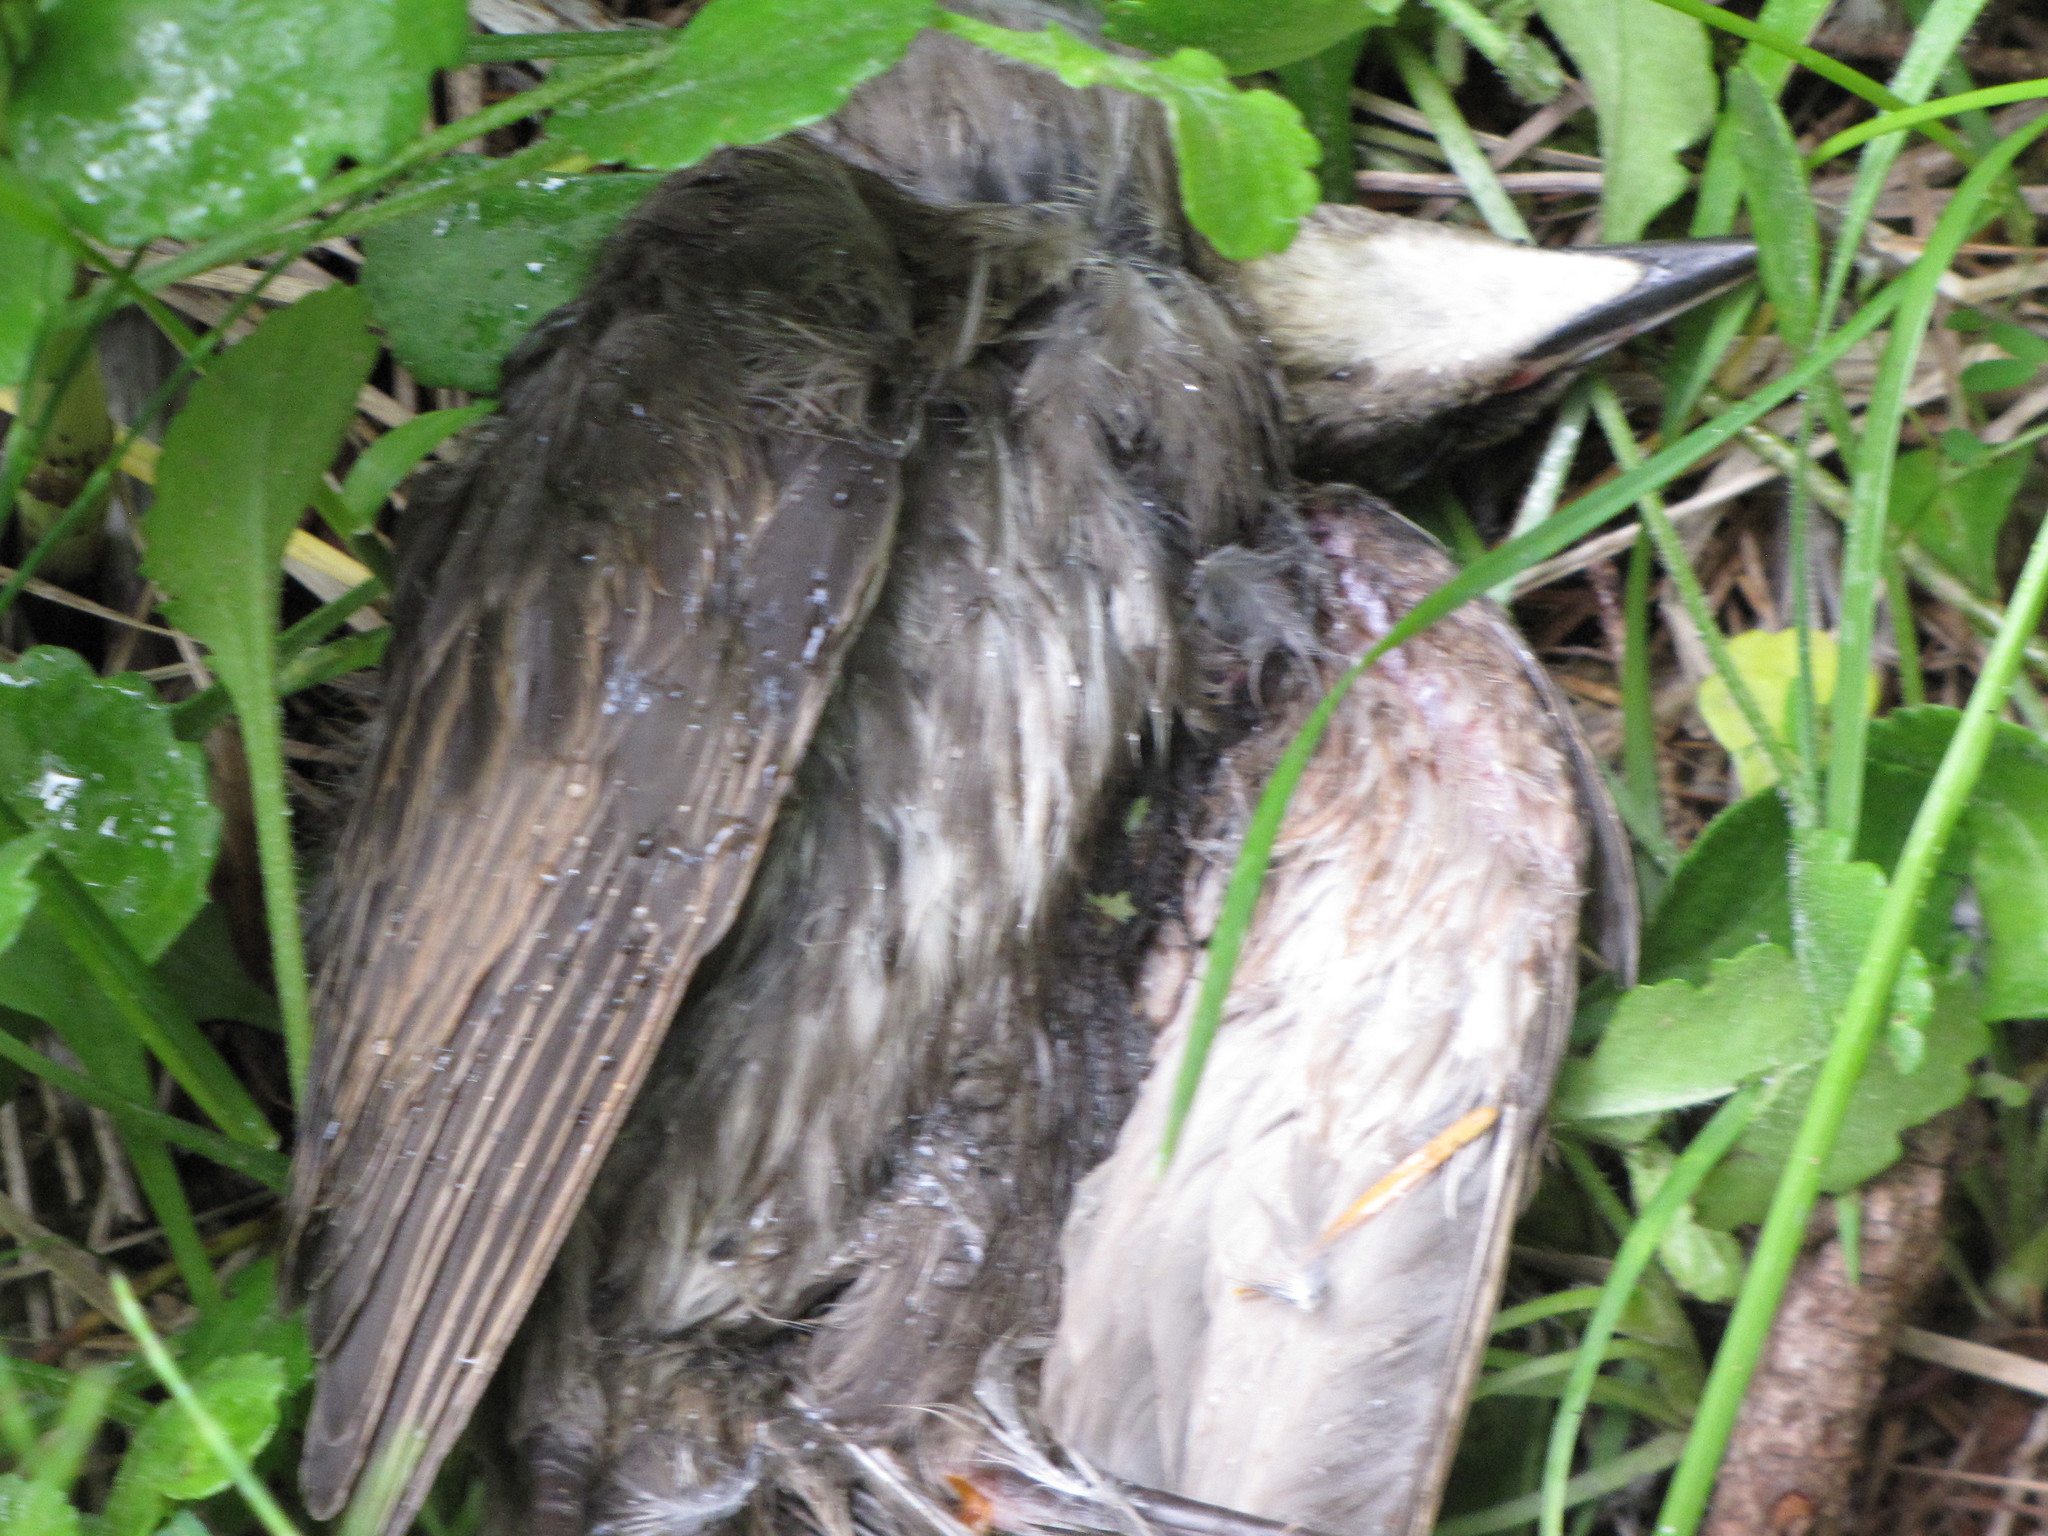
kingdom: Animalia
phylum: Chordata
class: Aves
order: Passeriformes
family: Sturnidae
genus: Sturnus
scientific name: Sturnus vulgaris
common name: Common starling
